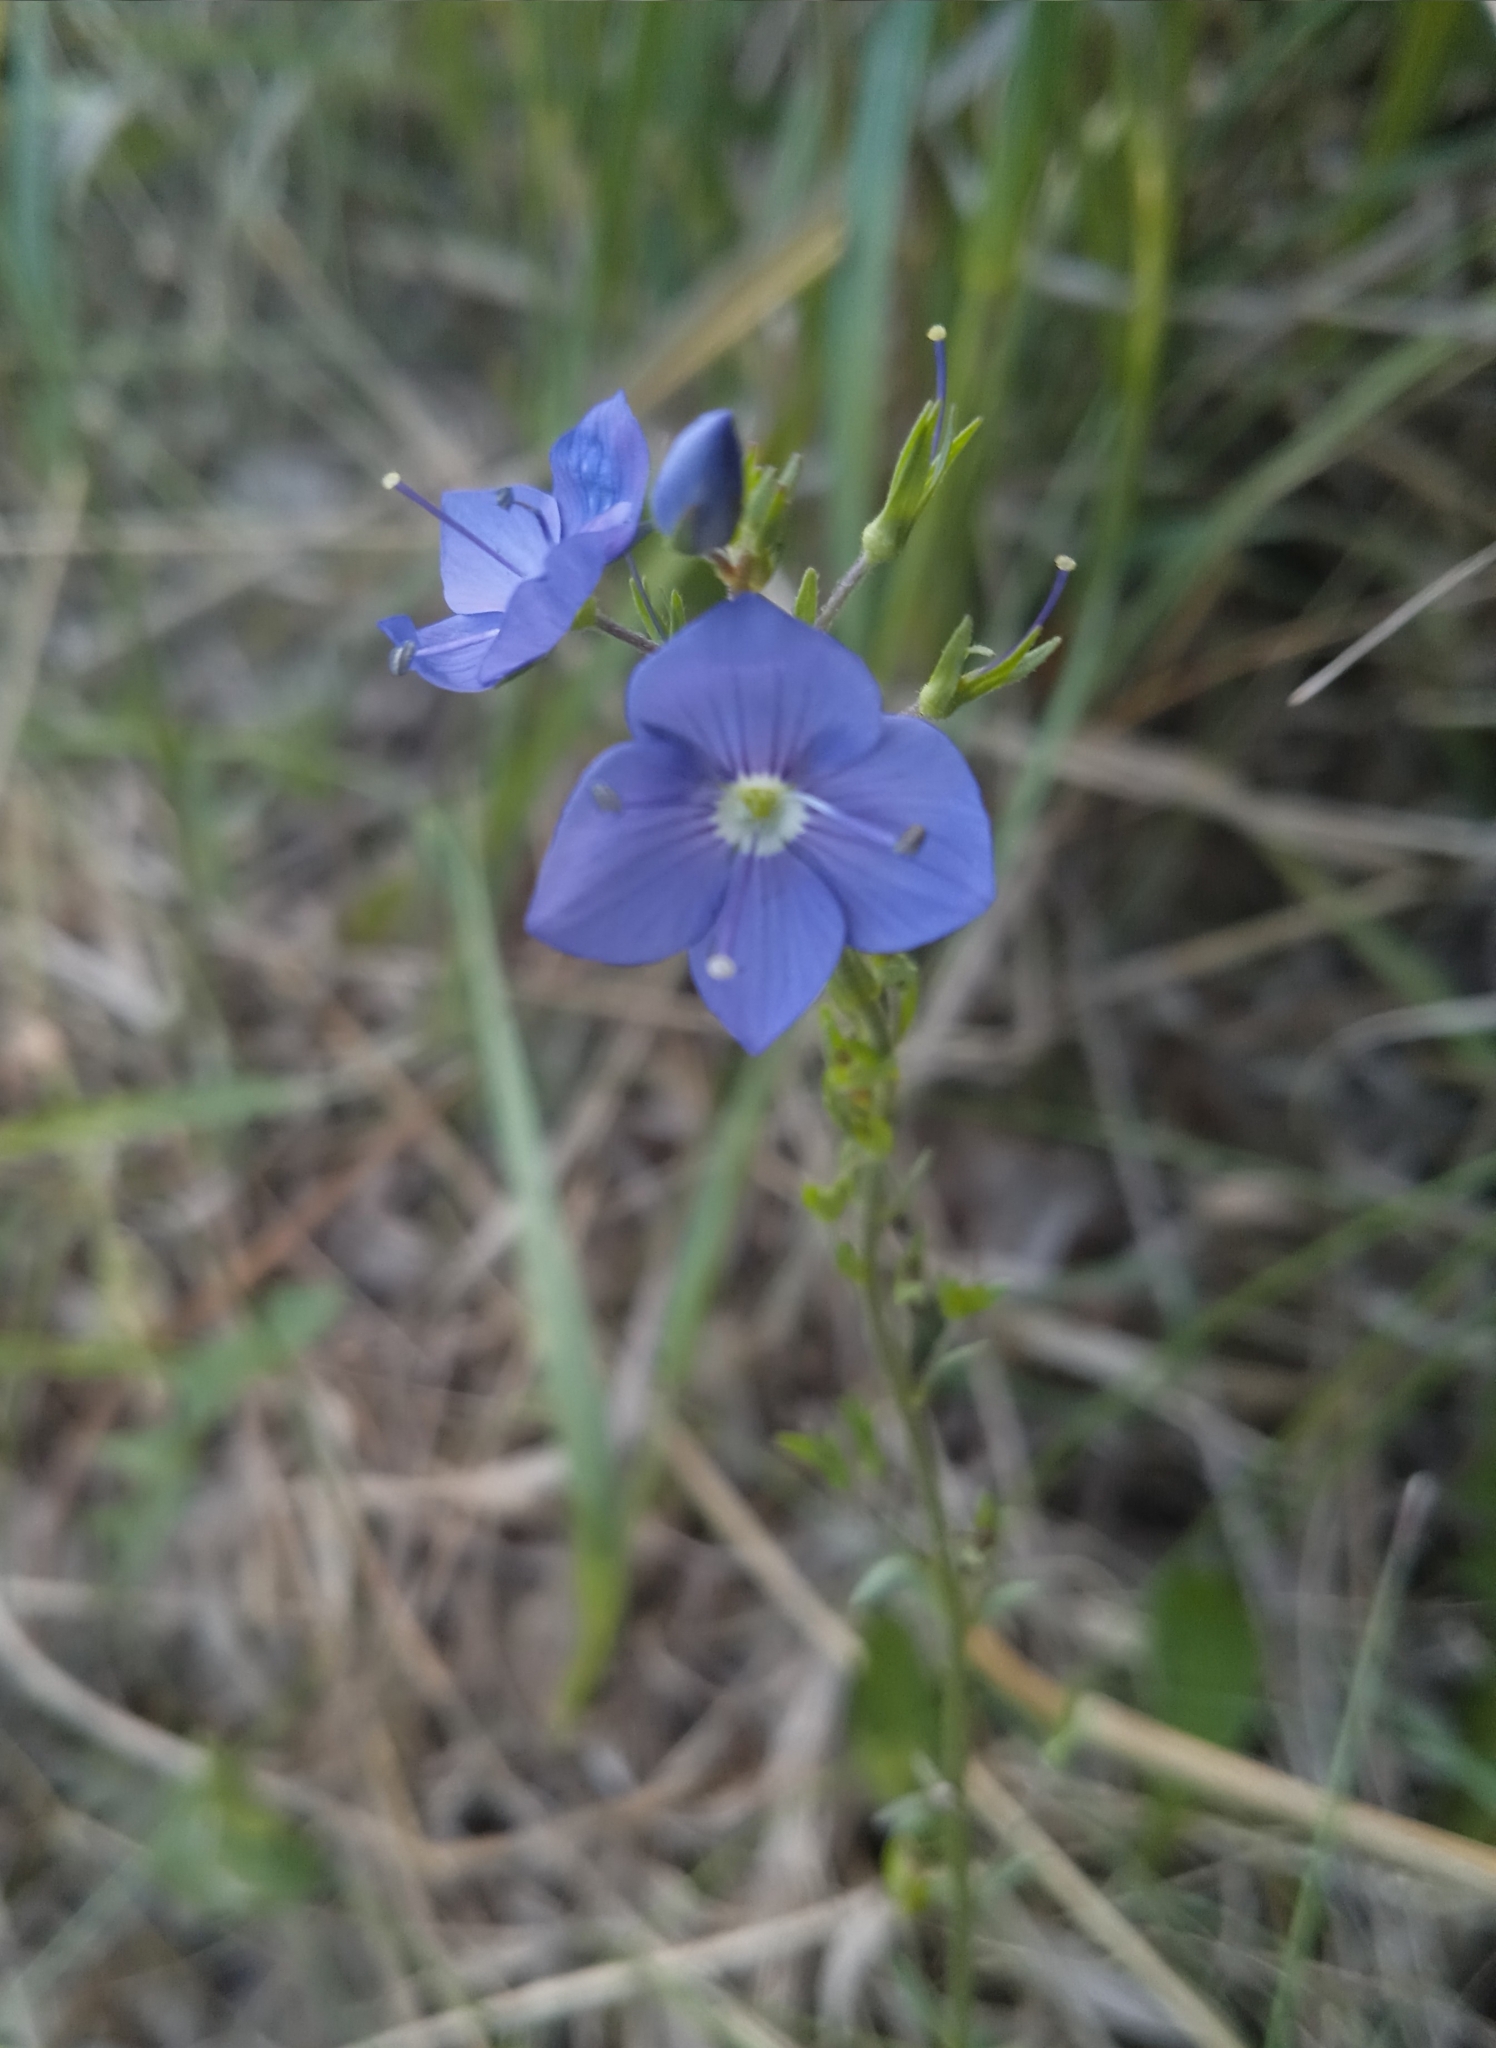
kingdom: Plantae
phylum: Tracheophyta
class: Magnoliopsida
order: Lamiales
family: Plantaginaceae
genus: Veronica
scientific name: Veronica krylovii
